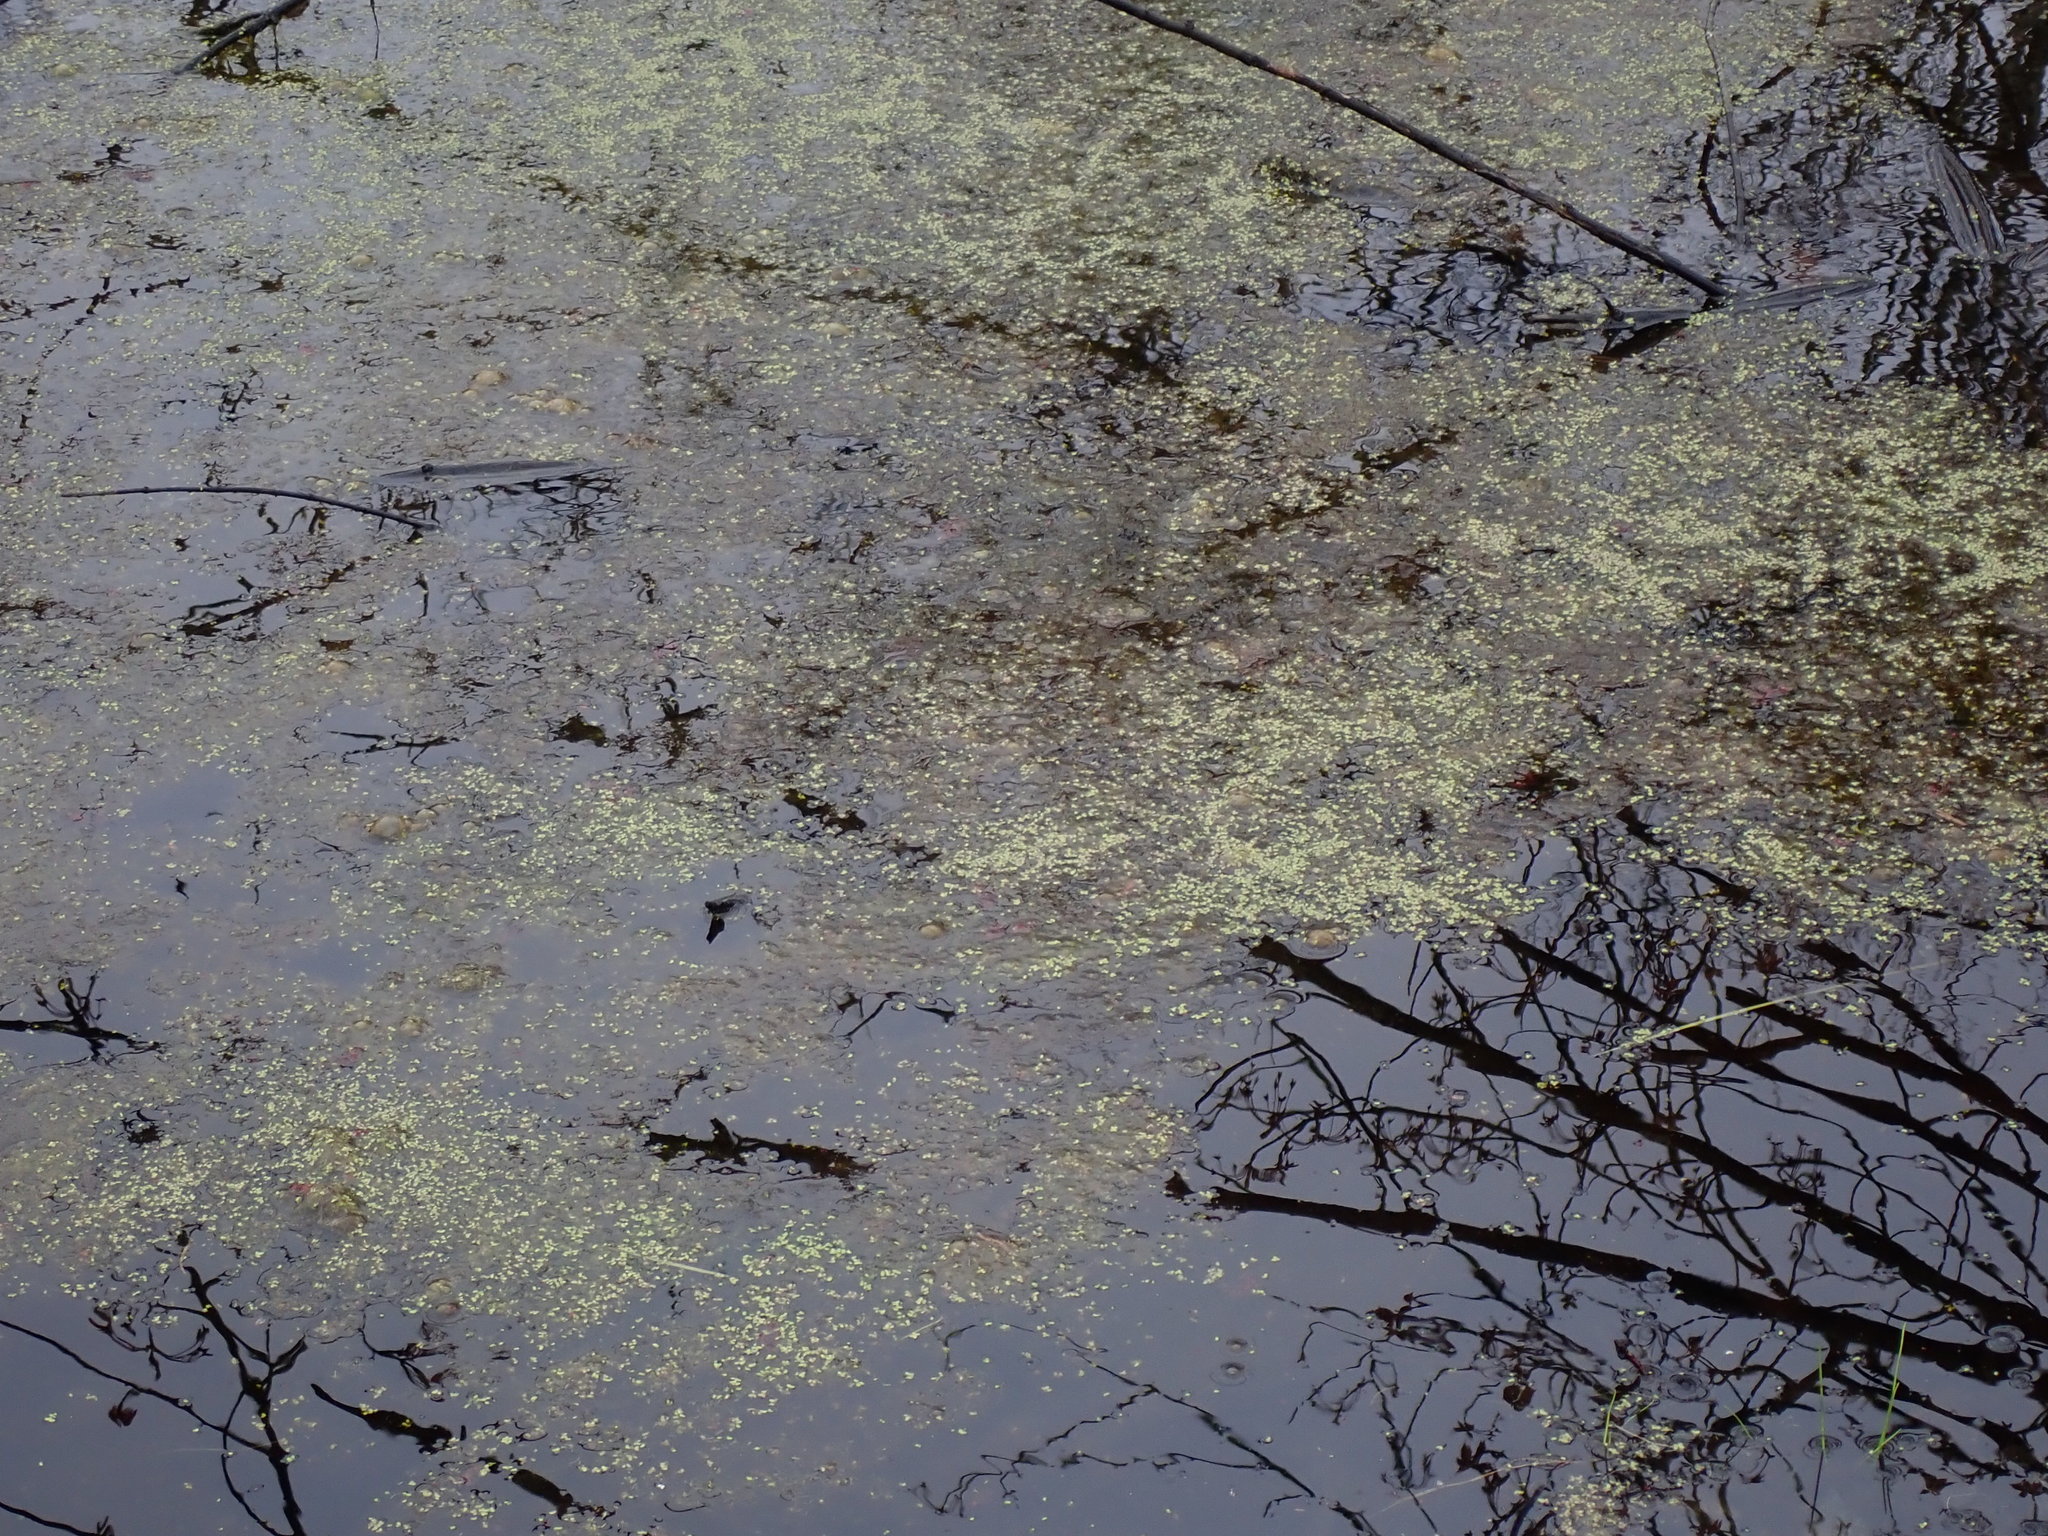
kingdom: Plantae
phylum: Tracheophyta
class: Liliopsida
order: Alismatales
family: Araceae
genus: Lemna
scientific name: Lemna minor
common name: Common duckweed
